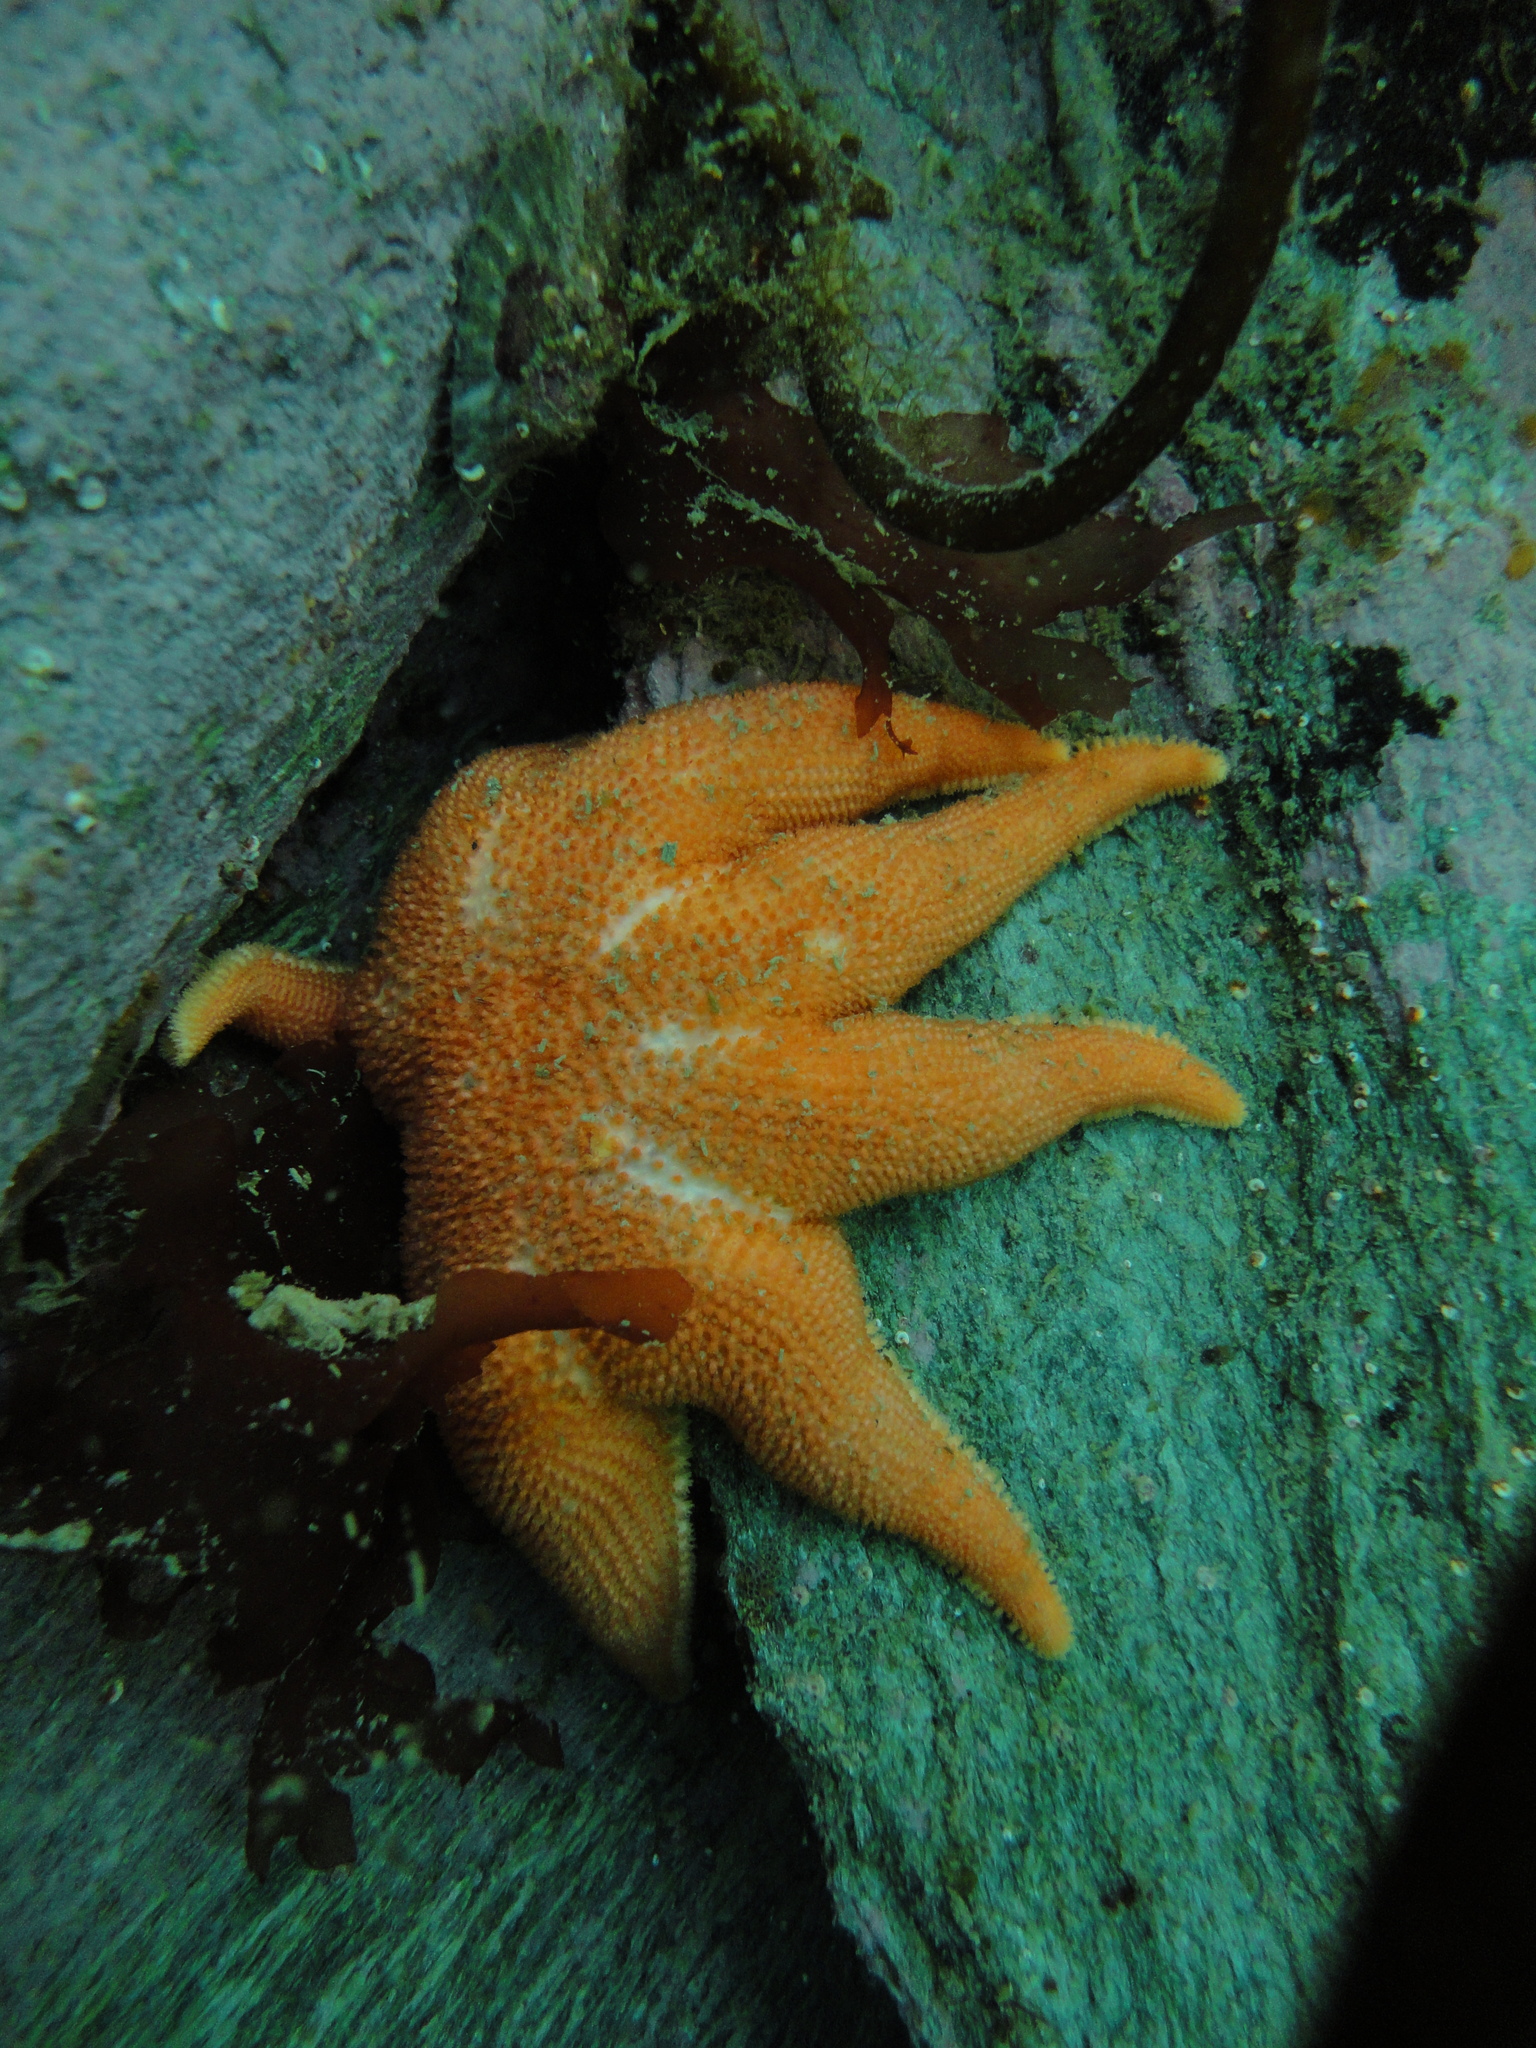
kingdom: Animalia
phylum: Echinodermata
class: Asteroidea
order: Valvatida
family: Solasteridae
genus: Solaster
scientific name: Solaster regularis
